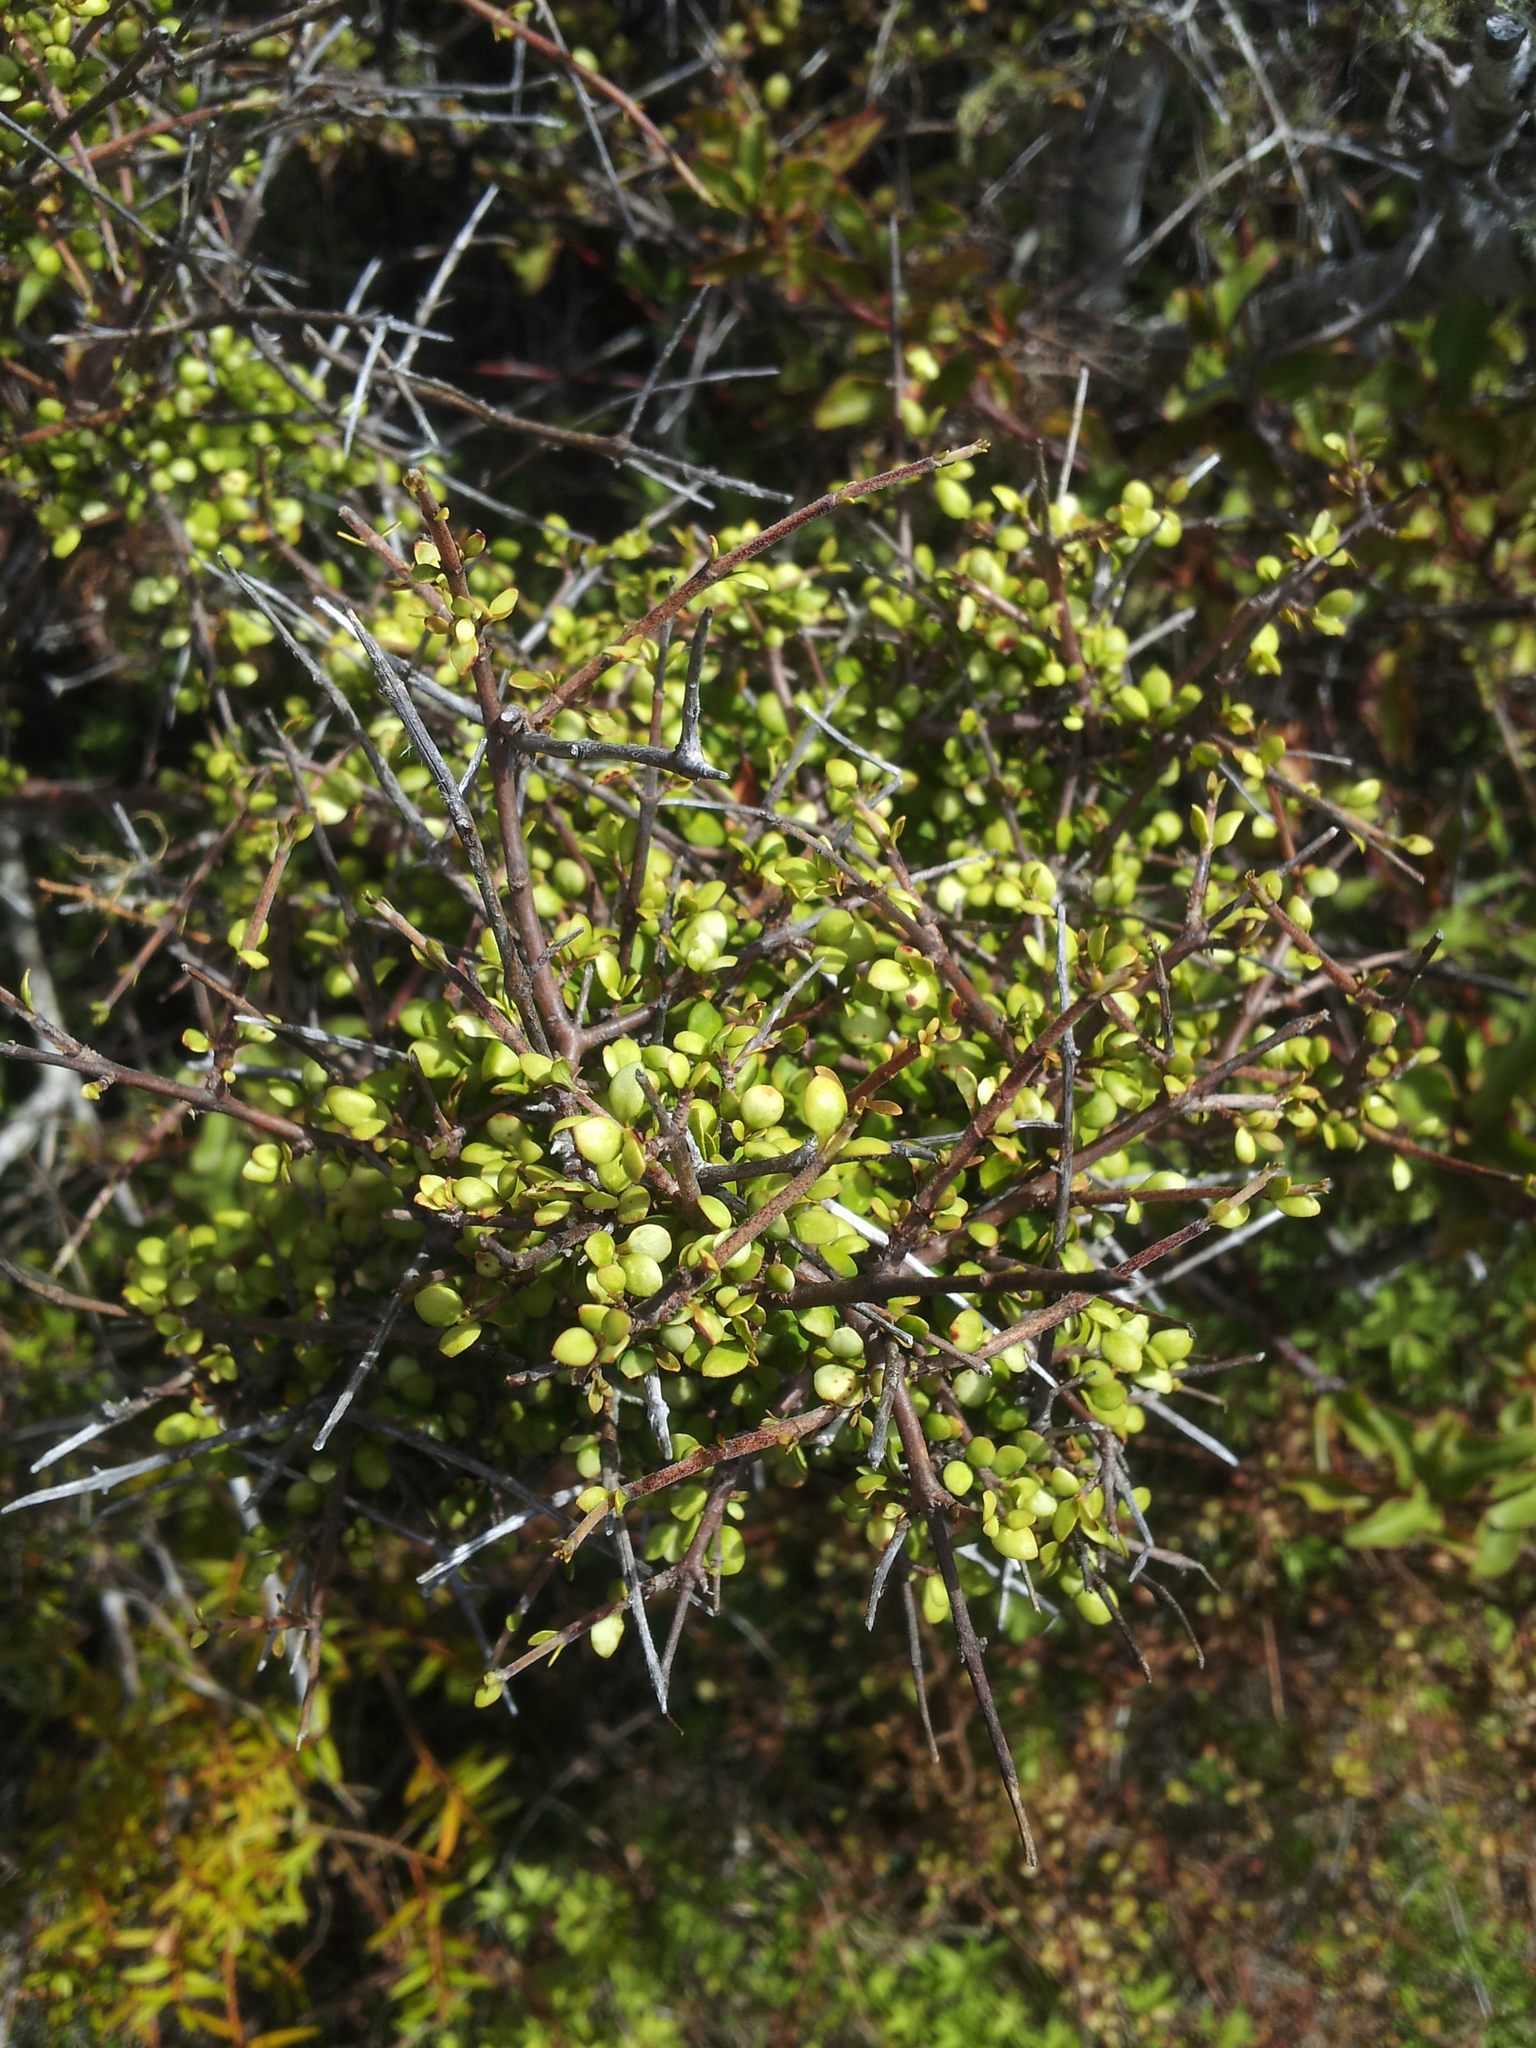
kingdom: Plantae
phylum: Tracheophyta
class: Magnoliopsida
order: Gentianales
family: Rubiaceae
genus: Coprosma
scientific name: Coprosma rhamnoides
